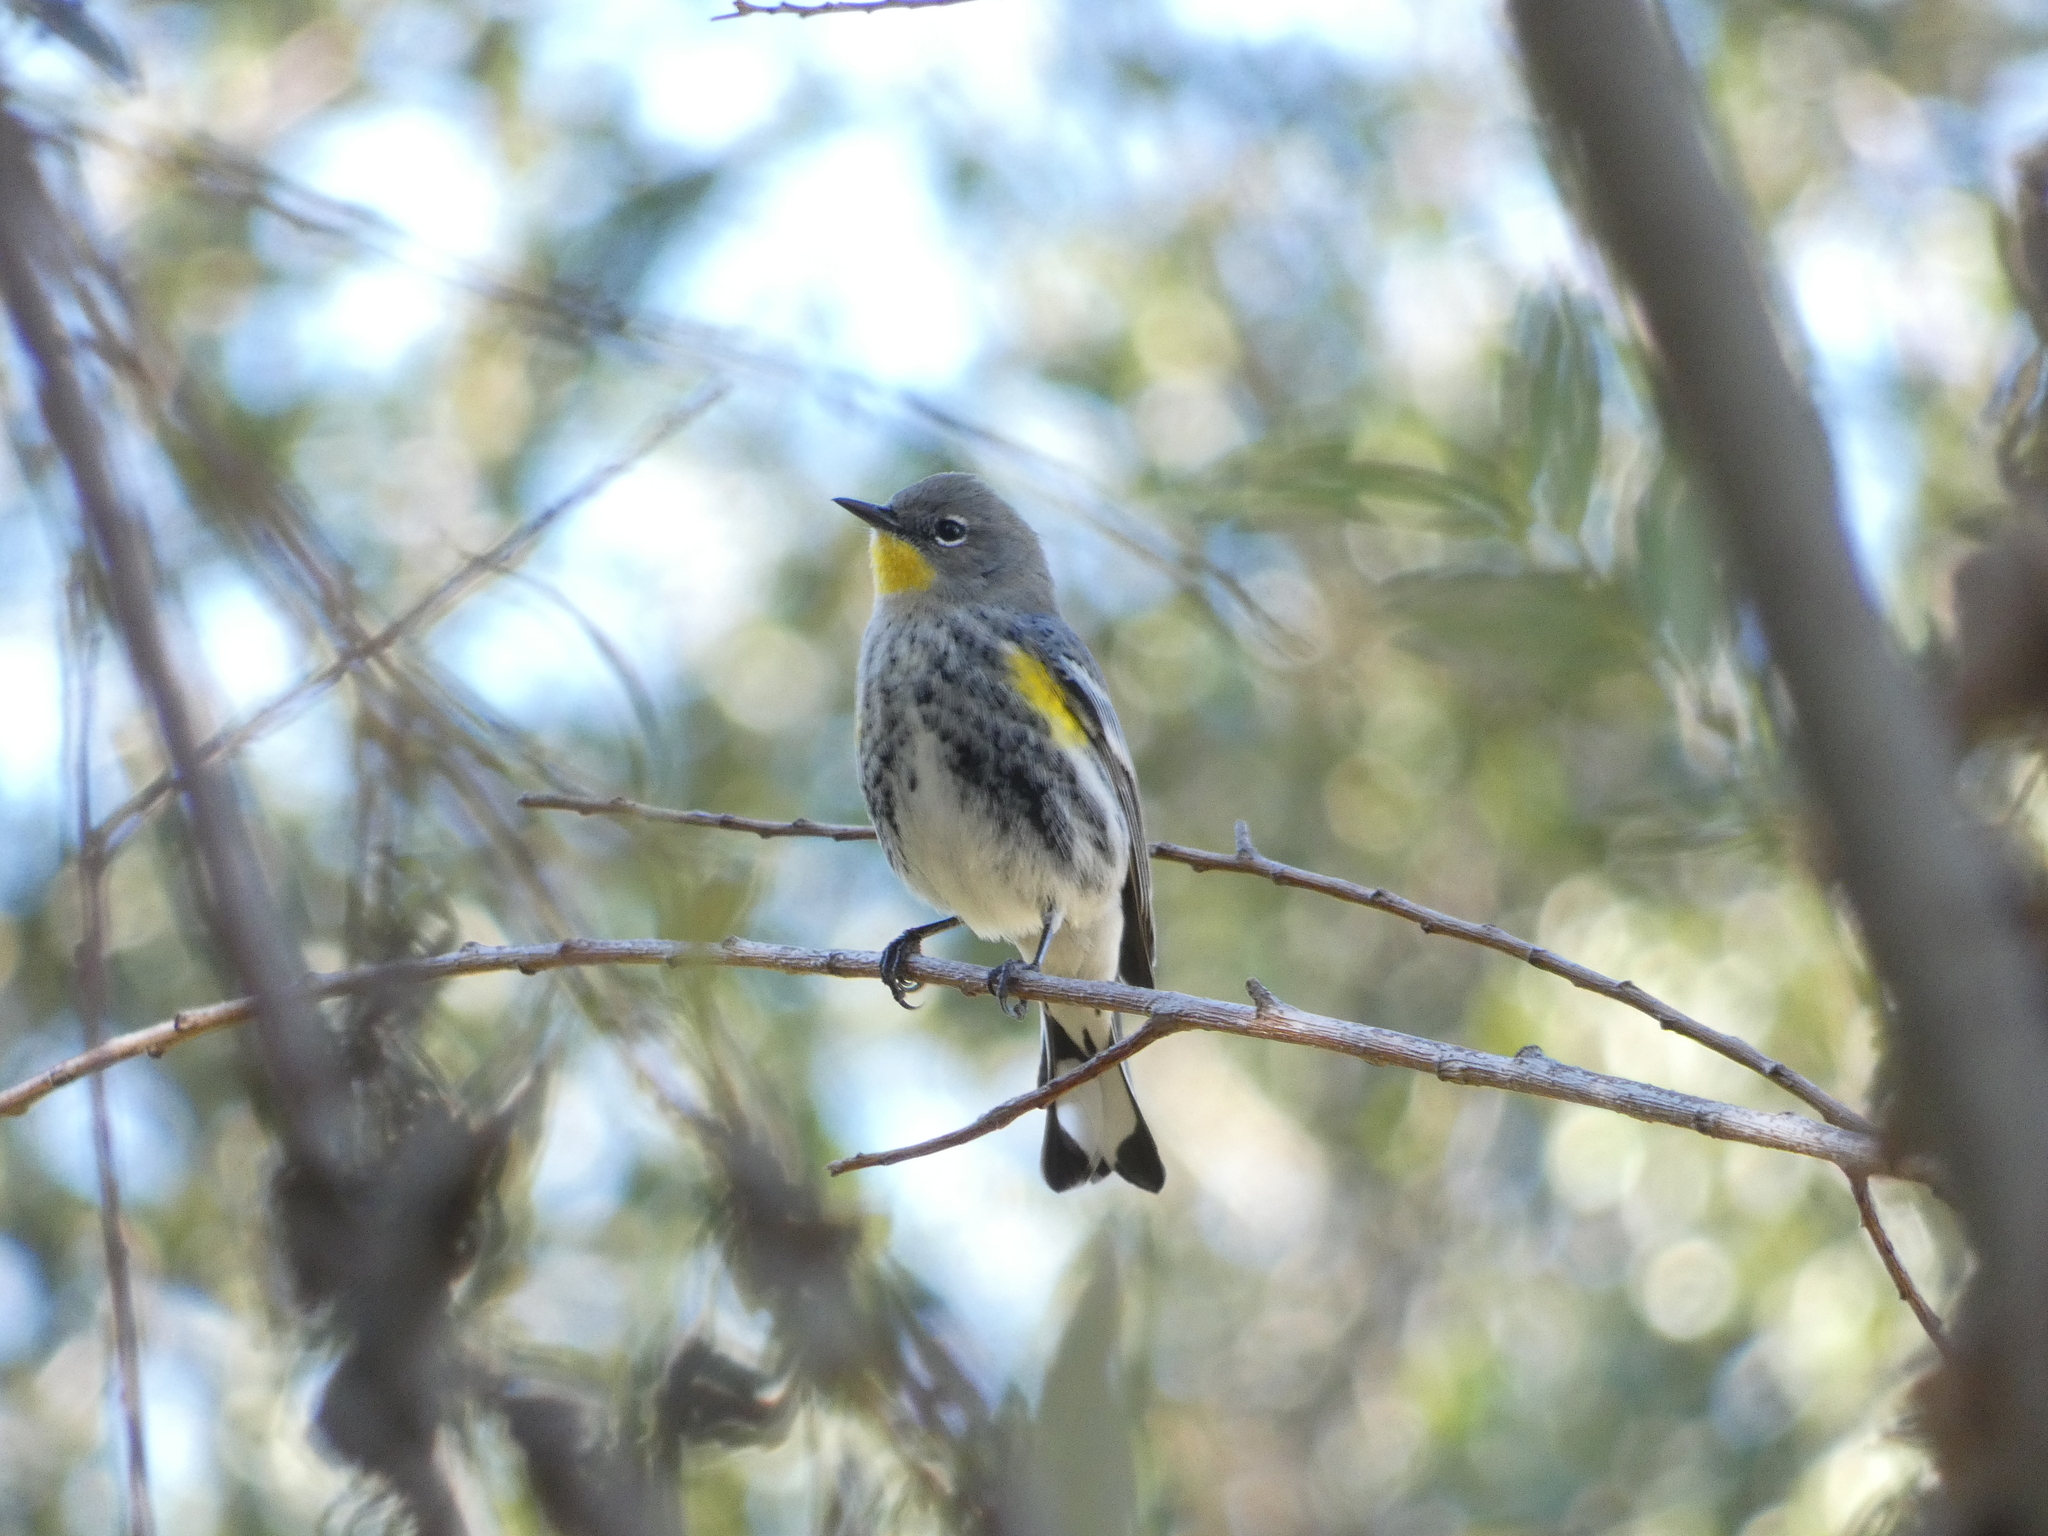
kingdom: Animalia
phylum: Chordata
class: Aves
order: Passeriformes
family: Parulidae
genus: Setophaga
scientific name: Setophaga auduboni
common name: Audubon's warbler
